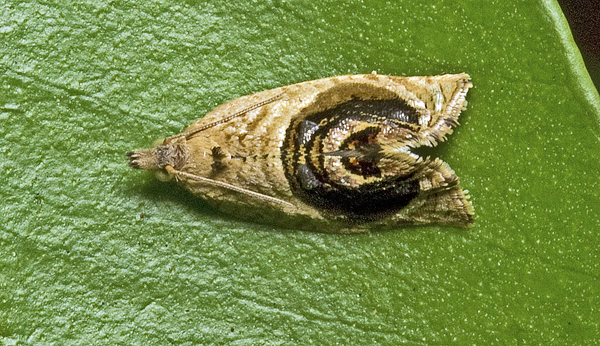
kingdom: Animalia
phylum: Arthropoda
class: Insecta
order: Lepidoptera
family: Tortricidae
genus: Acroceuthes
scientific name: Acroceuthes metaxanthana
